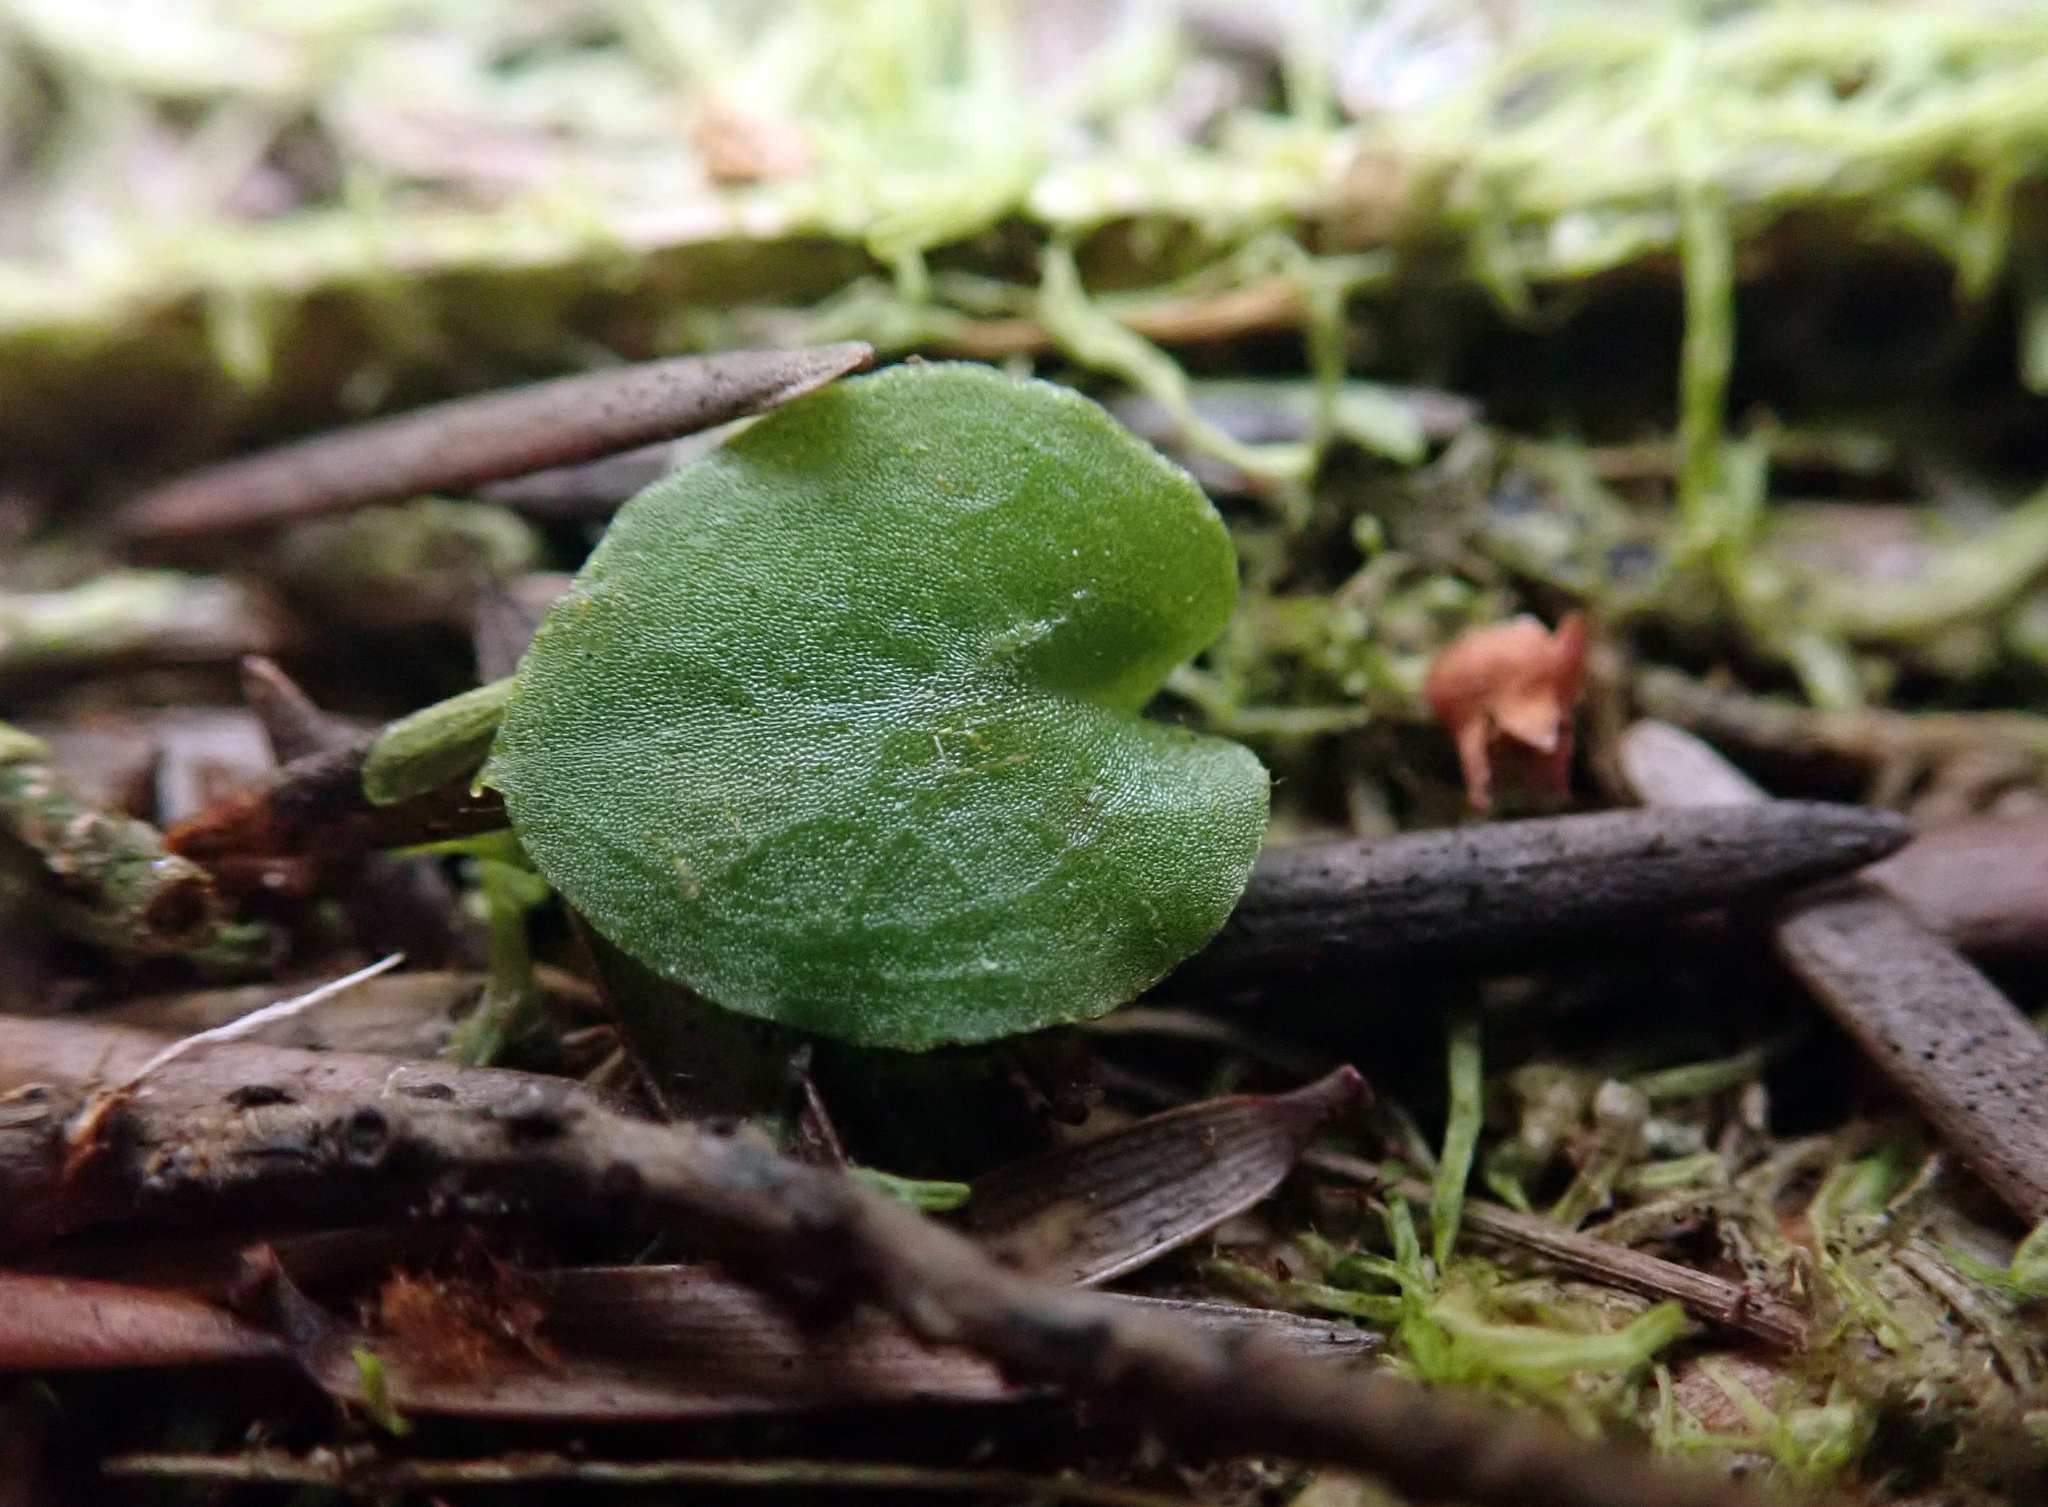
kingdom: Plantae
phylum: Tracheophyta
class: Liliopsida
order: Asparagales
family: Orchidaceae
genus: Corybas
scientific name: Corybas rotundifolius
